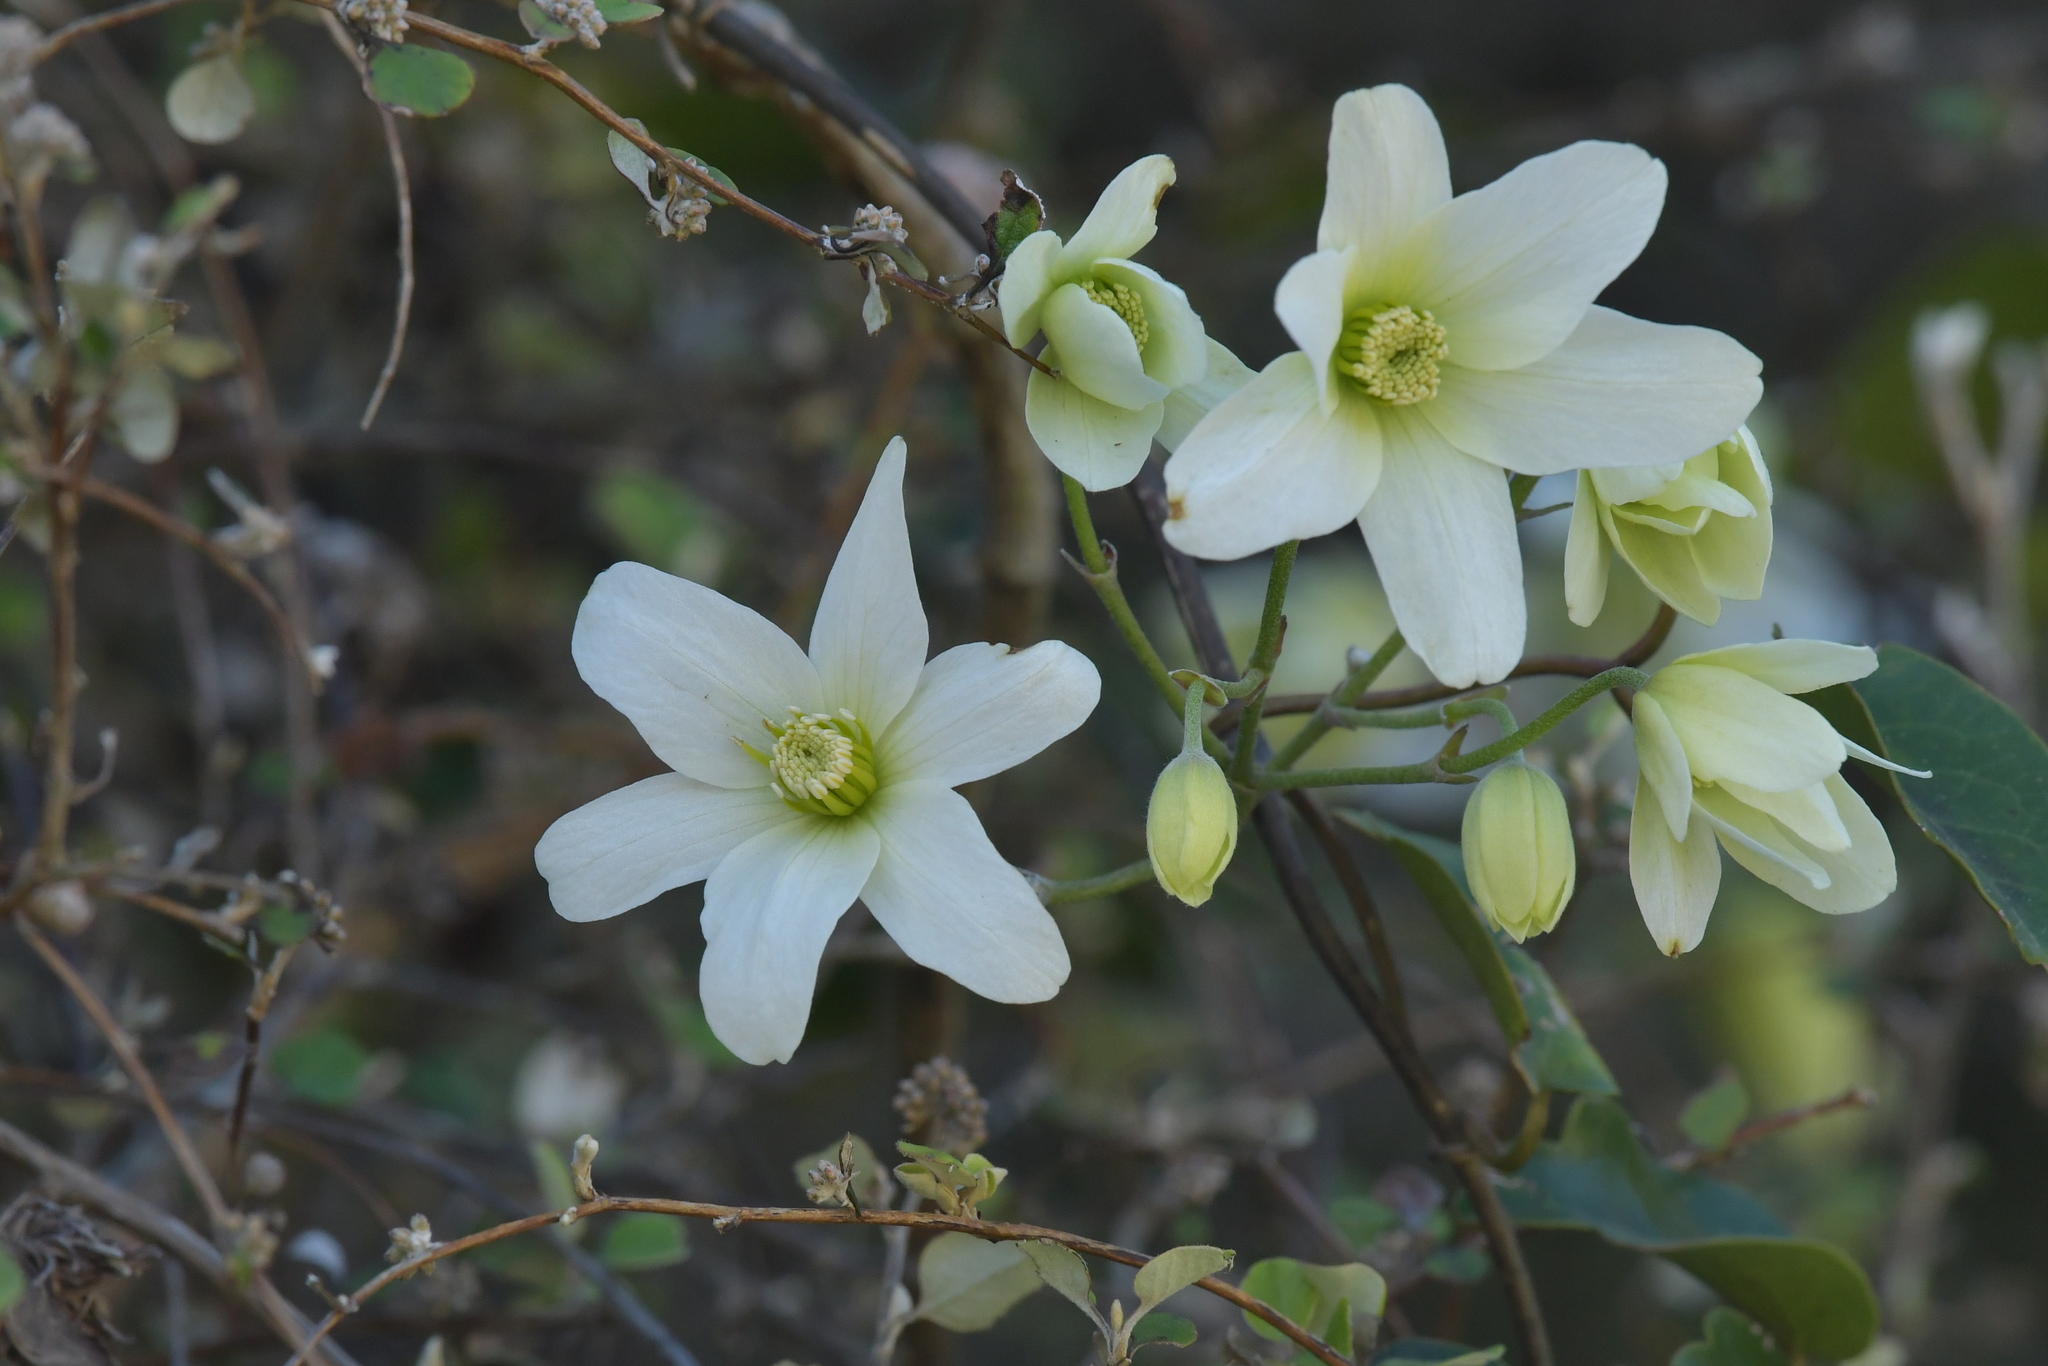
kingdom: Plantae
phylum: Tracheophyta
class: Magnoliopsida
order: Ranunculales
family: Ranunculaceae
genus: Clematis
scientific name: Clematis paniculata
